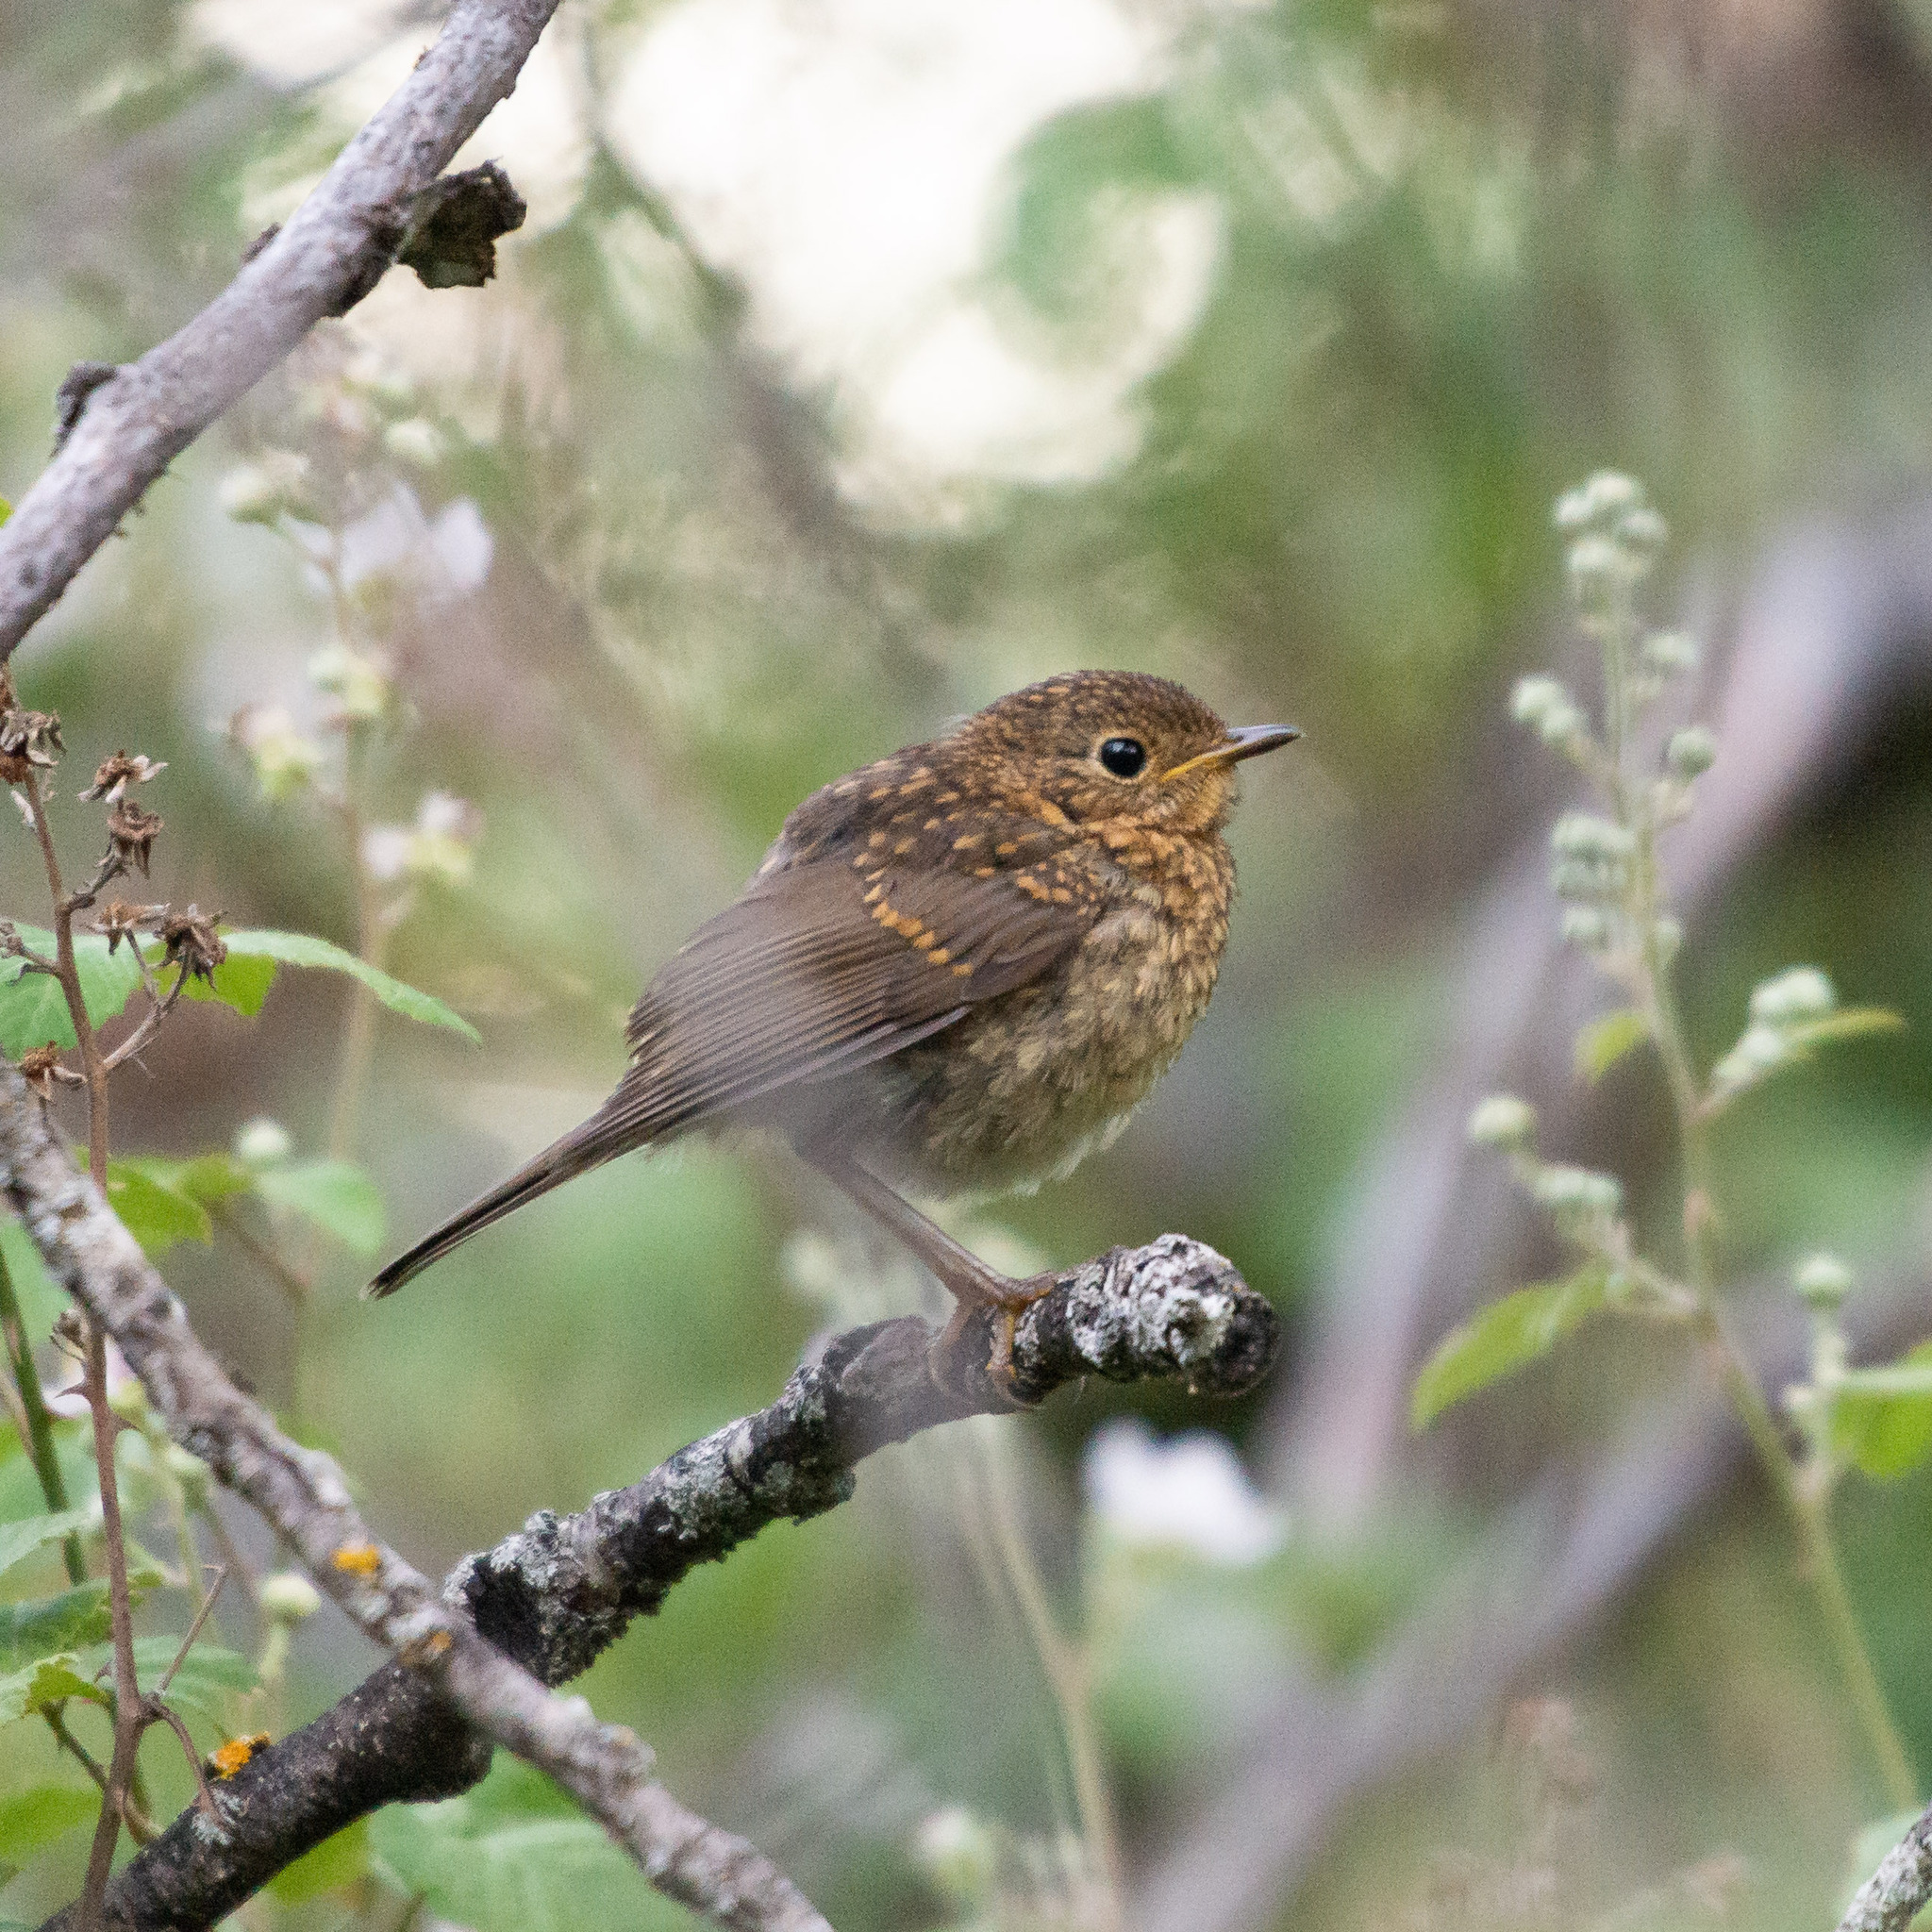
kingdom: Animalia
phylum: Chordata
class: Aves
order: Passeriformes
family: Muscicapidae
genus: Erithacus
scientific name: Erithacus rubecula
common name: European robin
